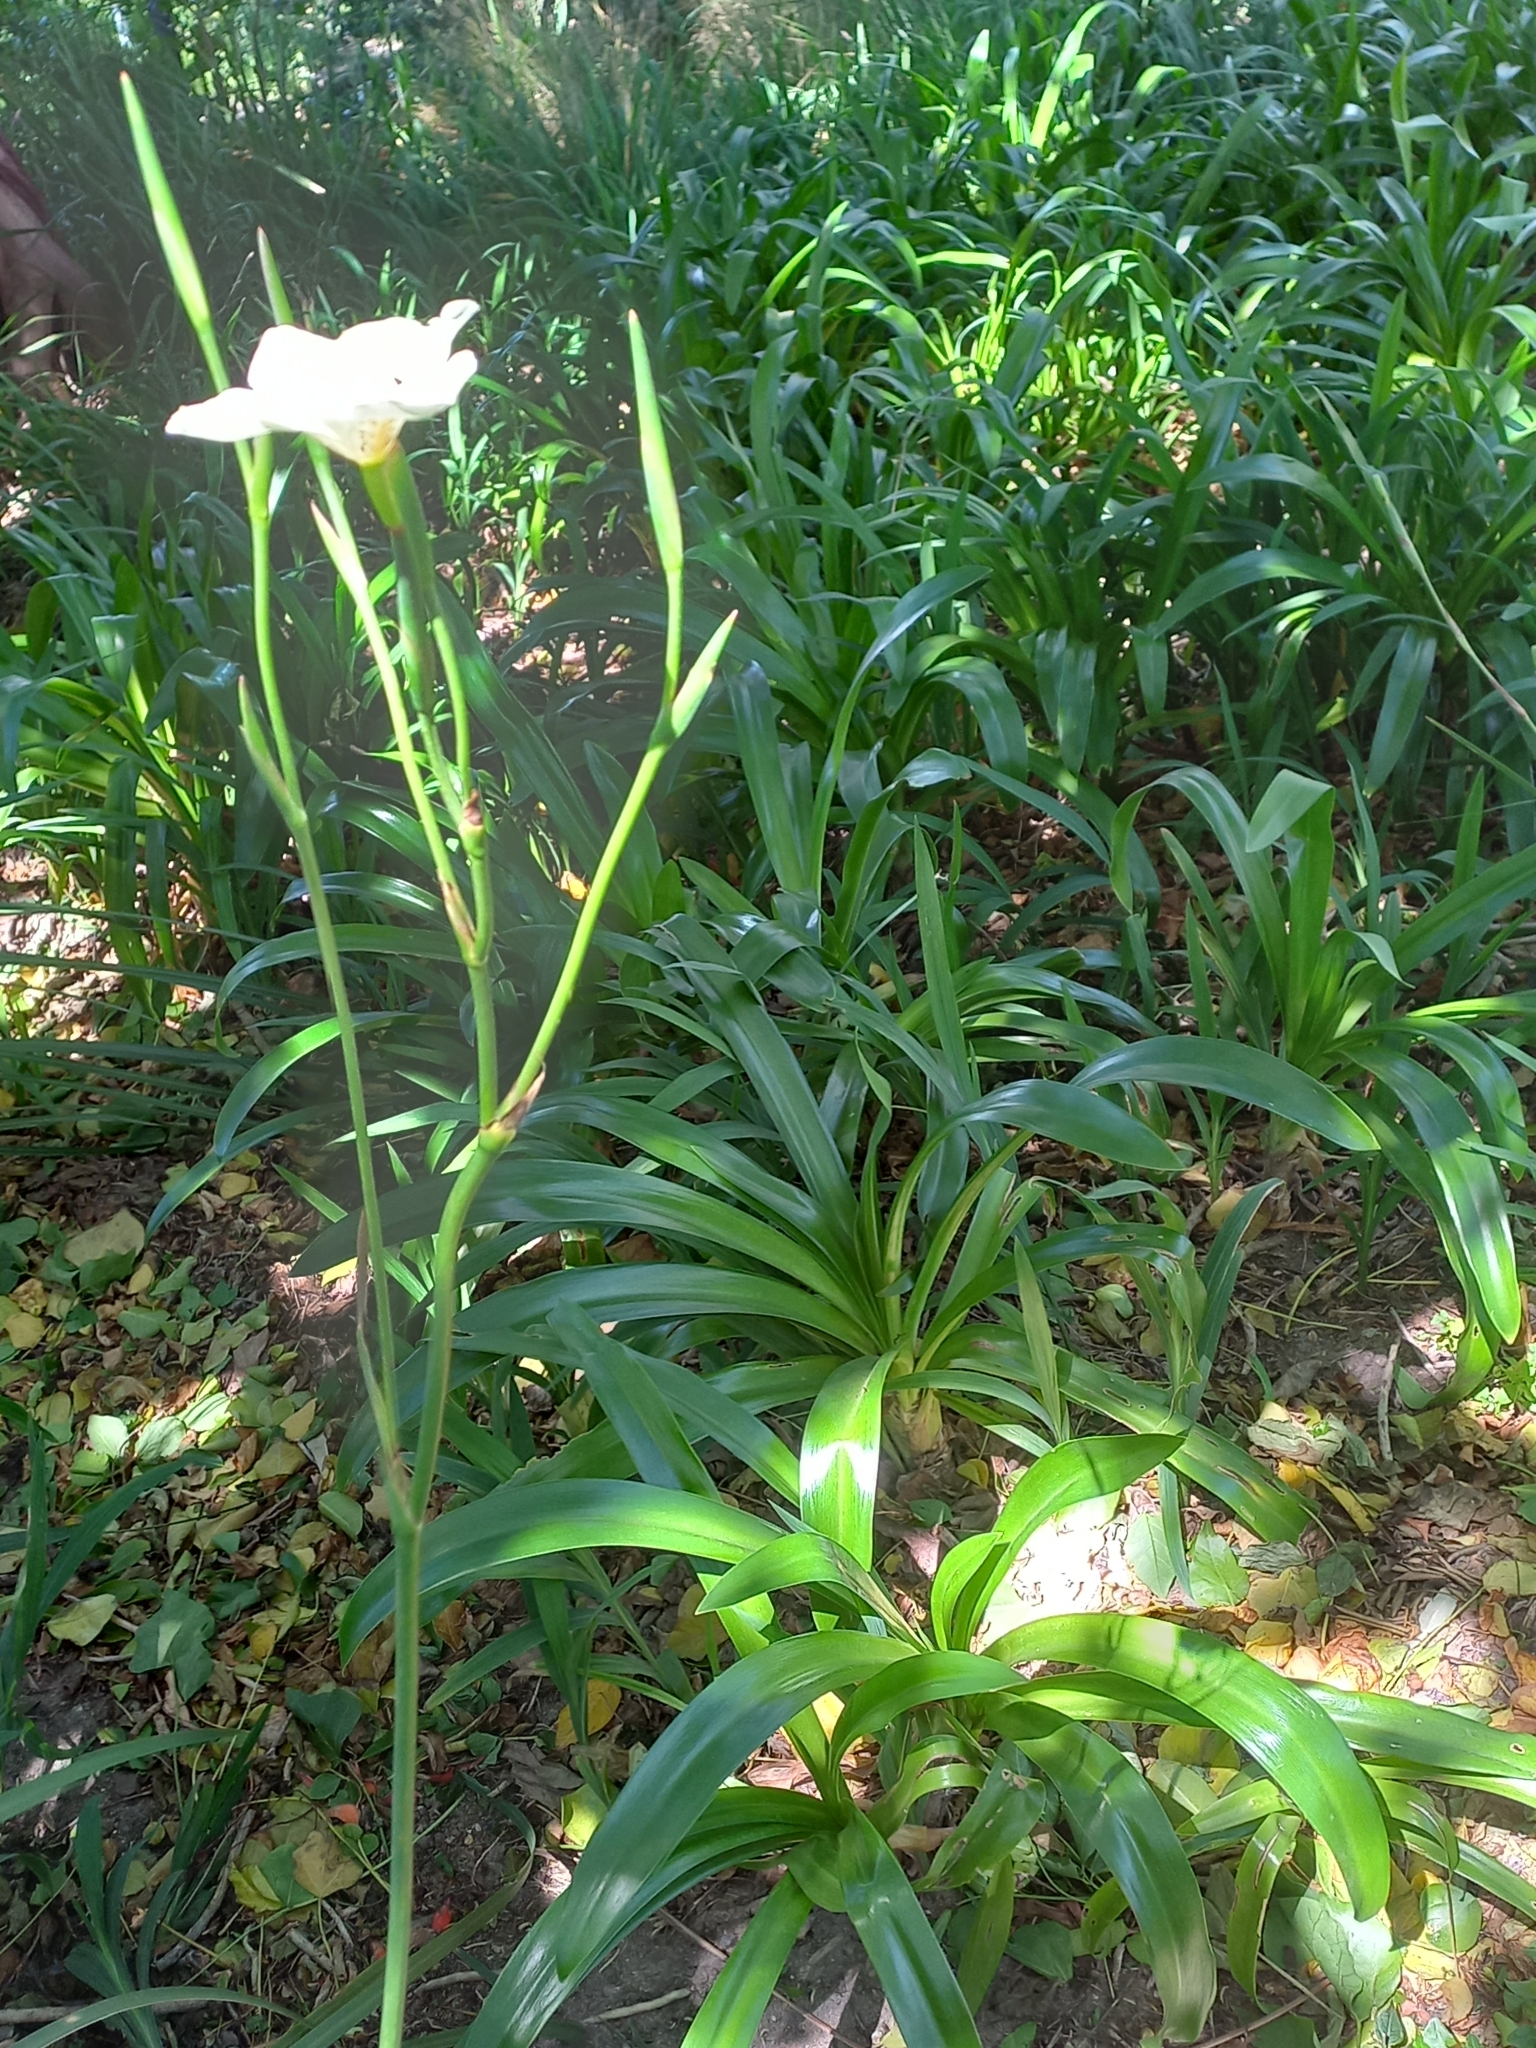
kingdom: Plantae
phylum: Tracheophyta
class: Liliopsida
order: Asparagales
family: Iridaceae
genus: Dietes
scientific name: Dietes bicolor
